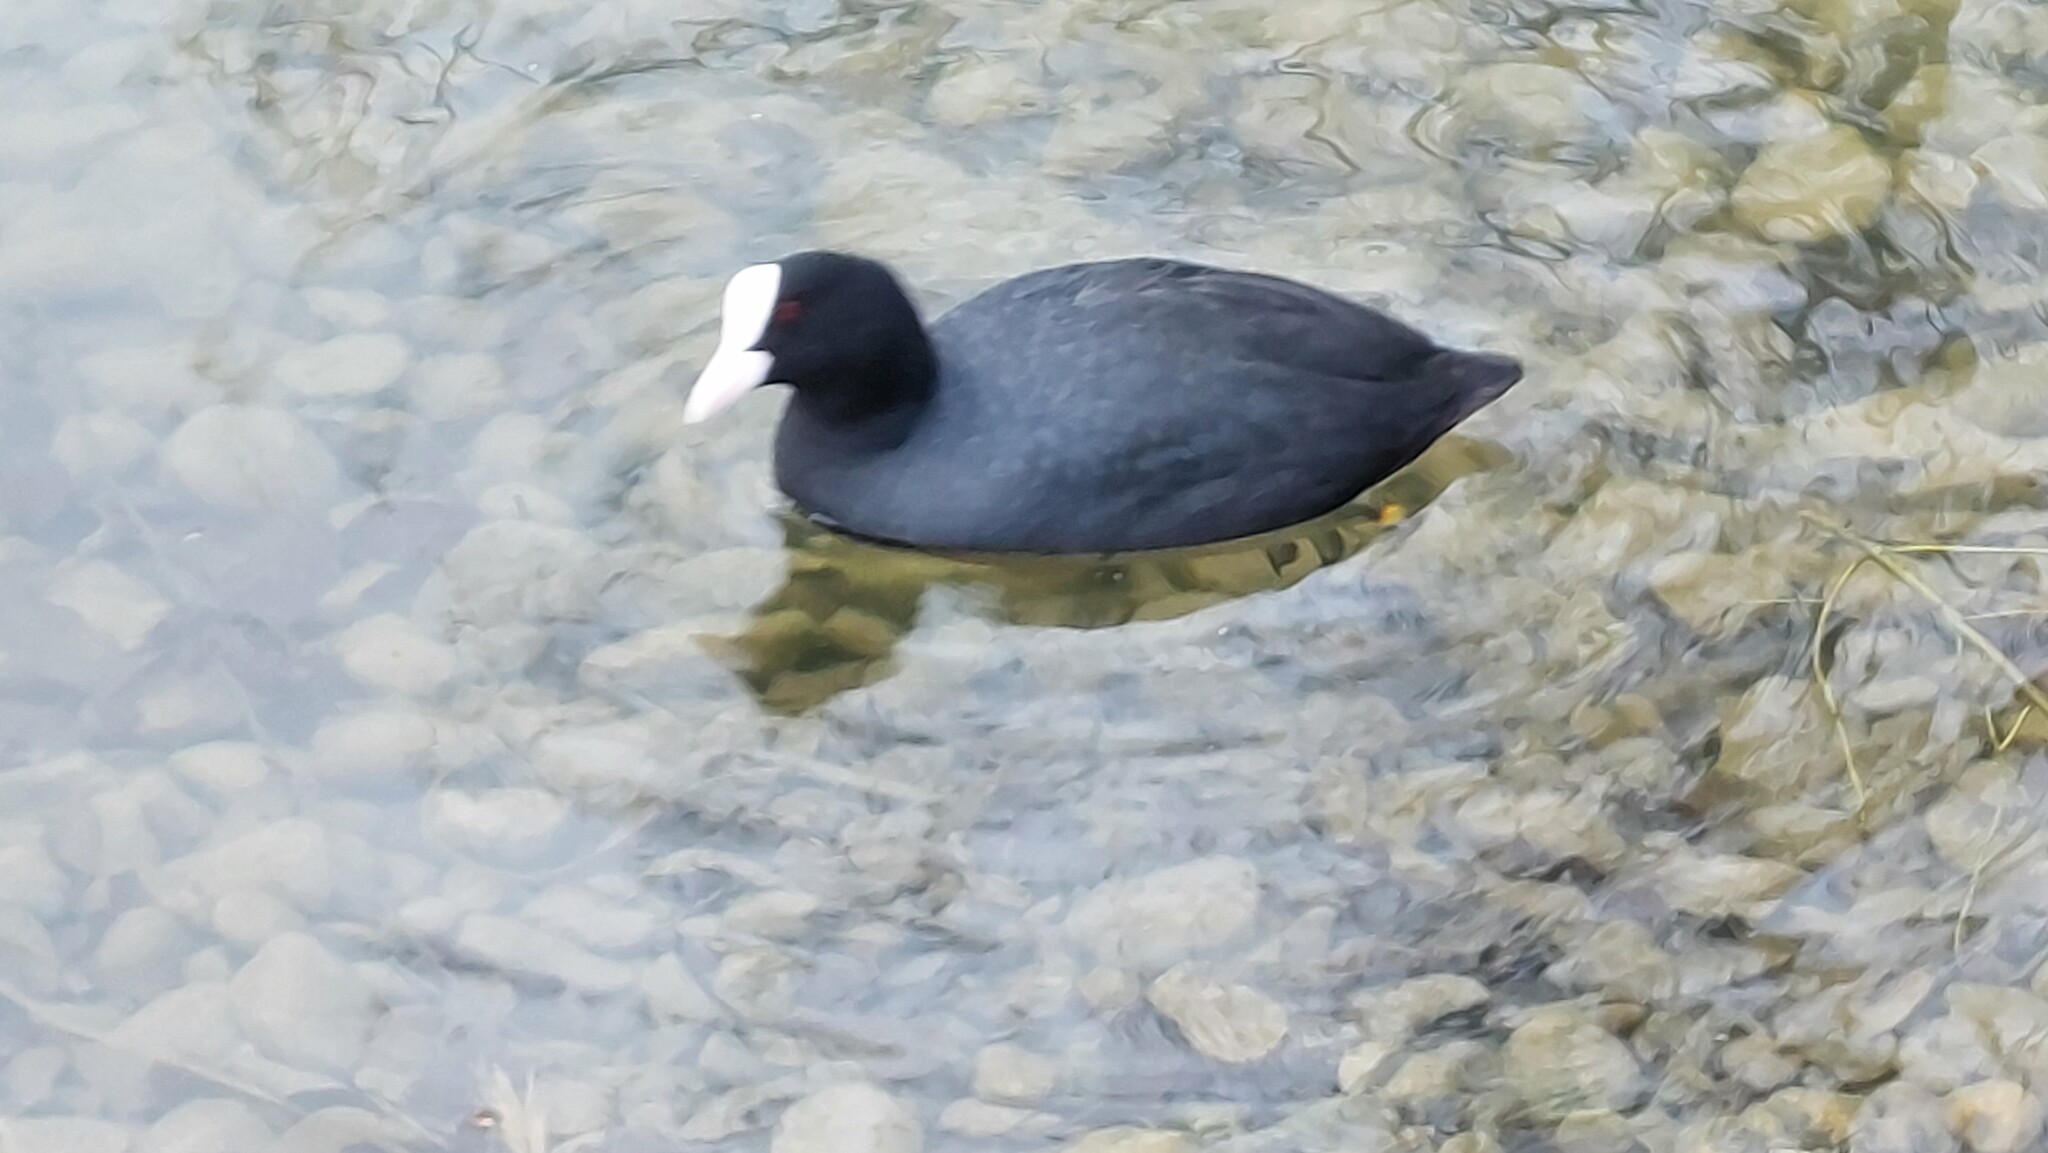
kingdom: Animalia
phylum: Chordata
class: Aves
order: Gruiformes
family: Rallidae
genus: Fulica
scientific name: Fulica atra
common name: Eurasian coot
